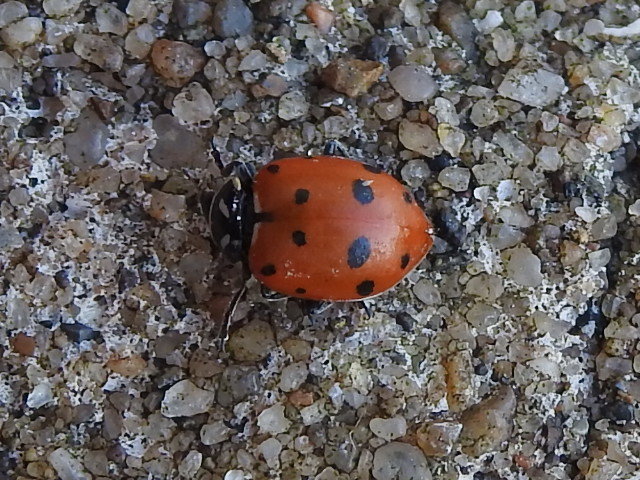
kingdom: Animalia
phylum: Arthropoda
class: Insecta
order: Coleoptera
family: Coccinellidae
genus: Hippodamia
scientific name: Hippodamia convergens
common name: Convergent lady beetle
